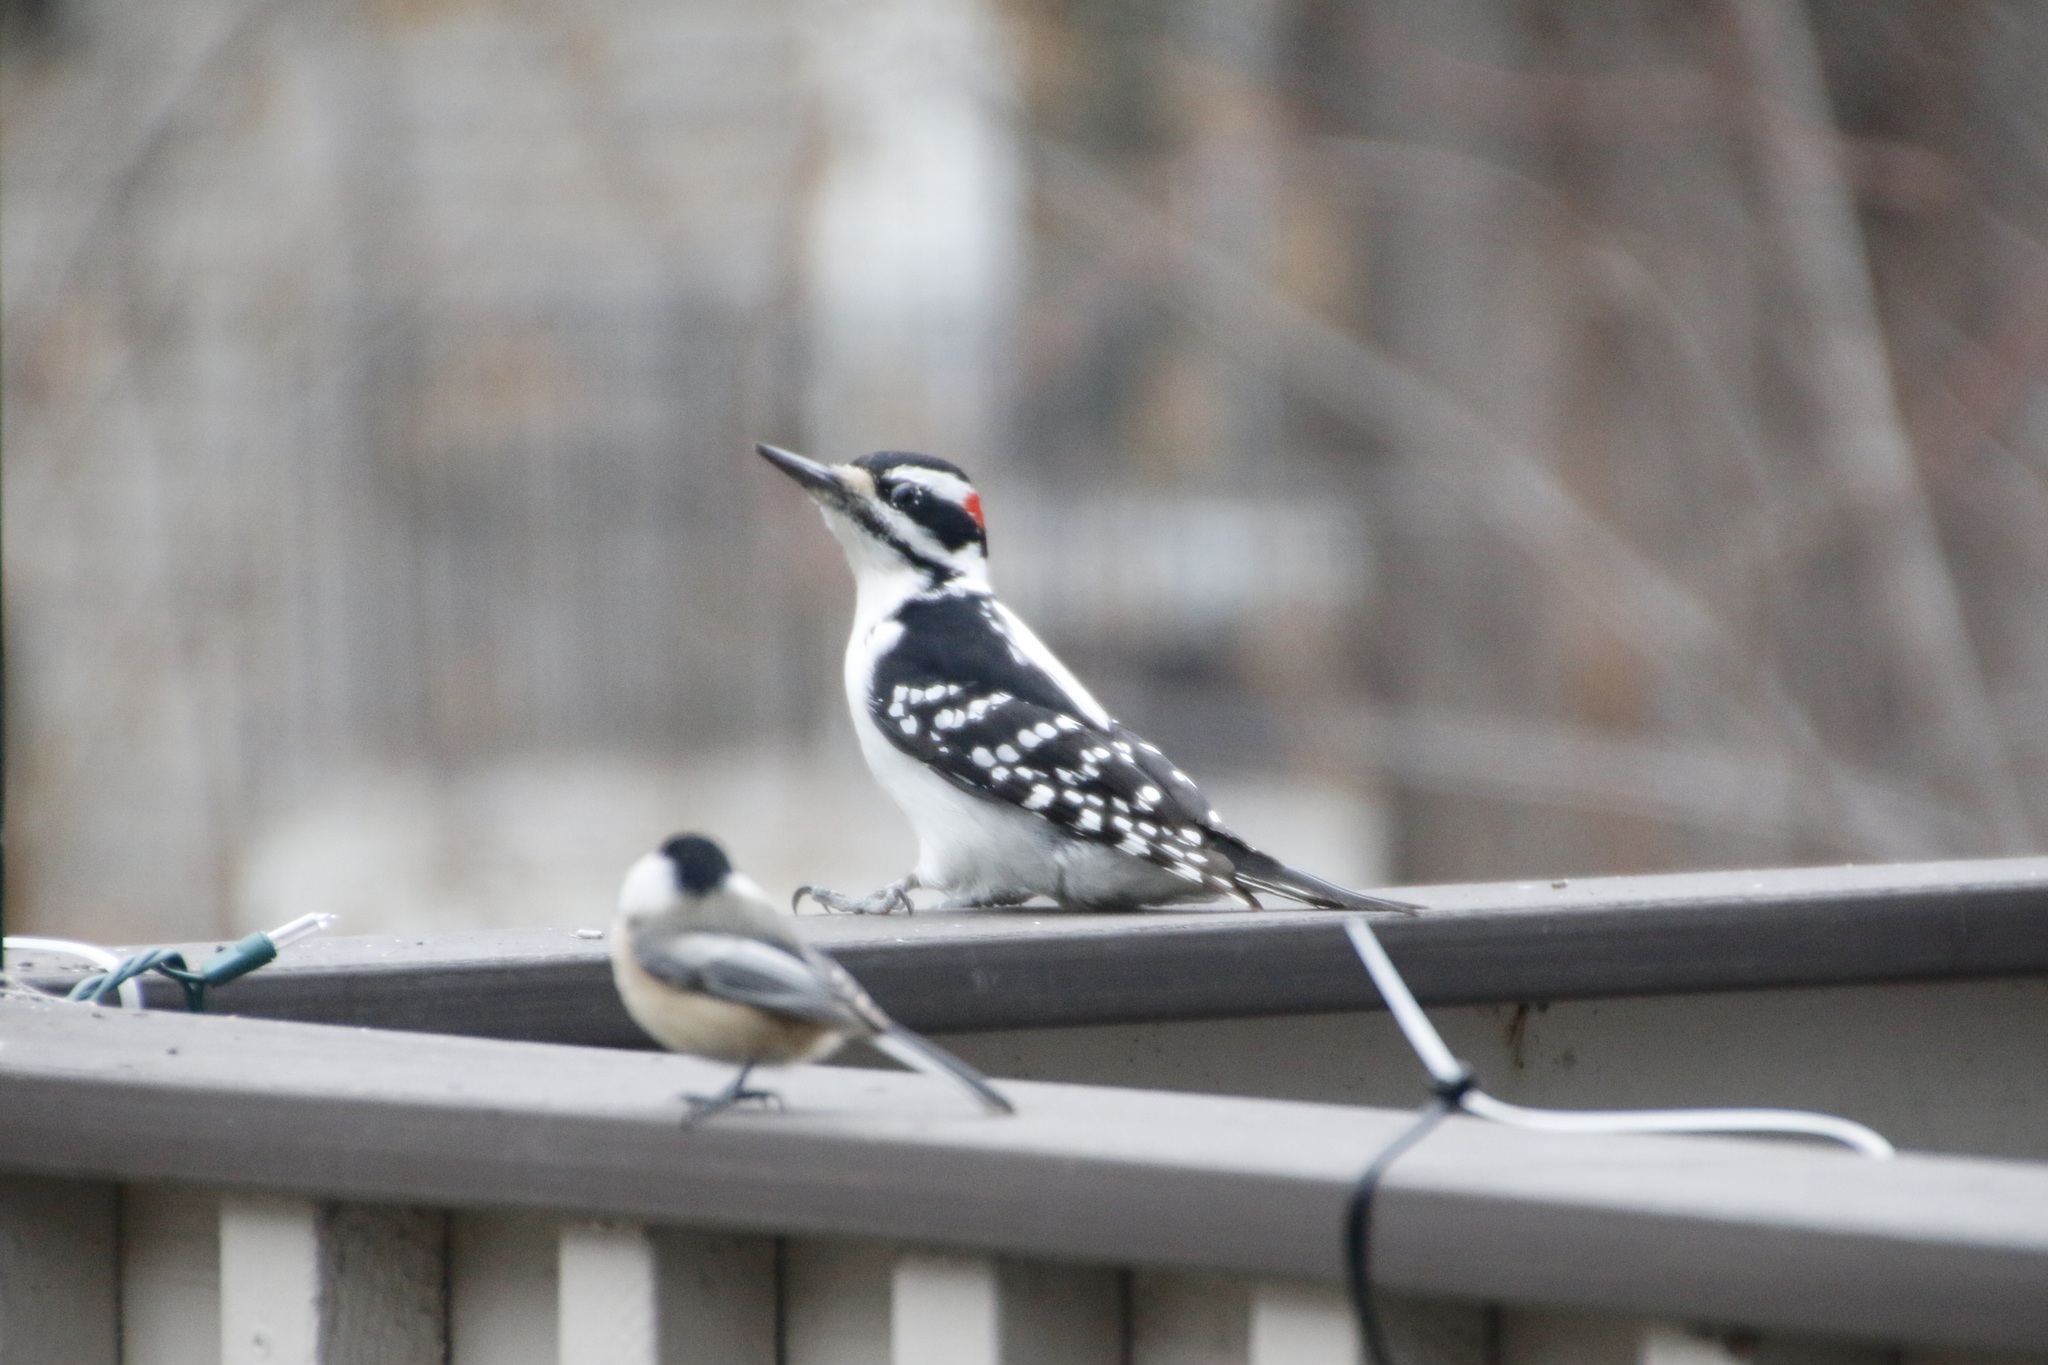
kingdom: Animalia
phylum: Chordata
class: Aves
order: Piciformes
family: Picidae
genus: Leuconotopicus
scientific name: Leuconotopicus villosus
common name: Hairy woodpecker
